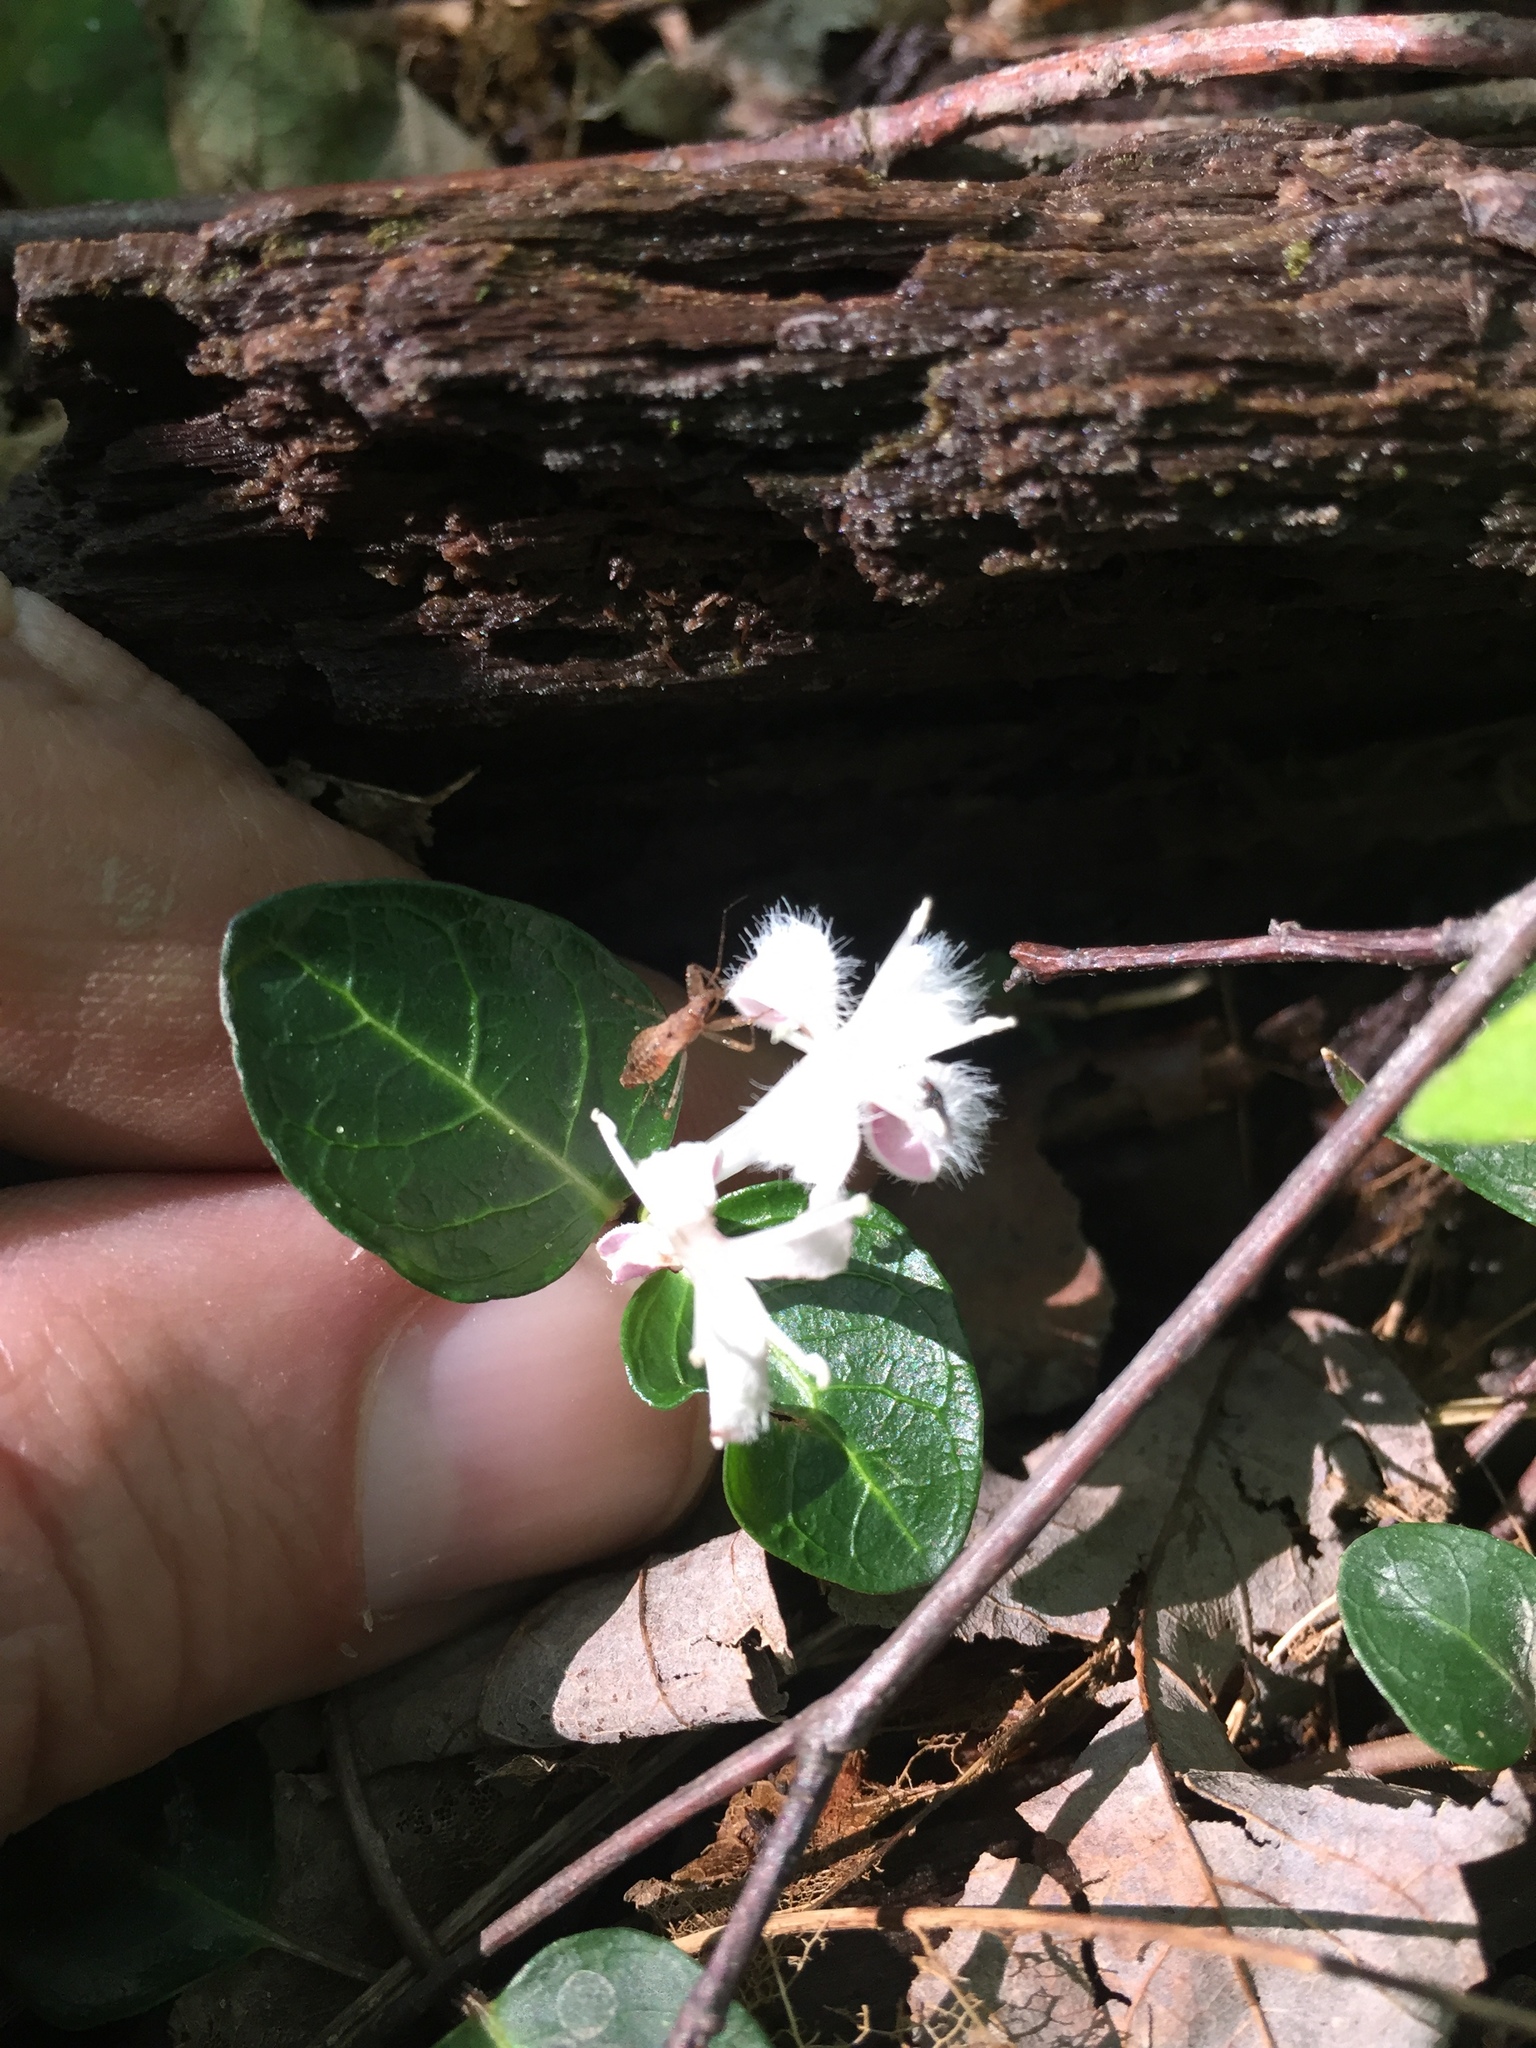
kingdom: Plantae
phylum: Tracheophyta
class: Magnoliopsida
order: Gentianales
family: Rubiaceae
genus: Mitchella
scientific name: Mitchella repens
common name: Partridge-berry
